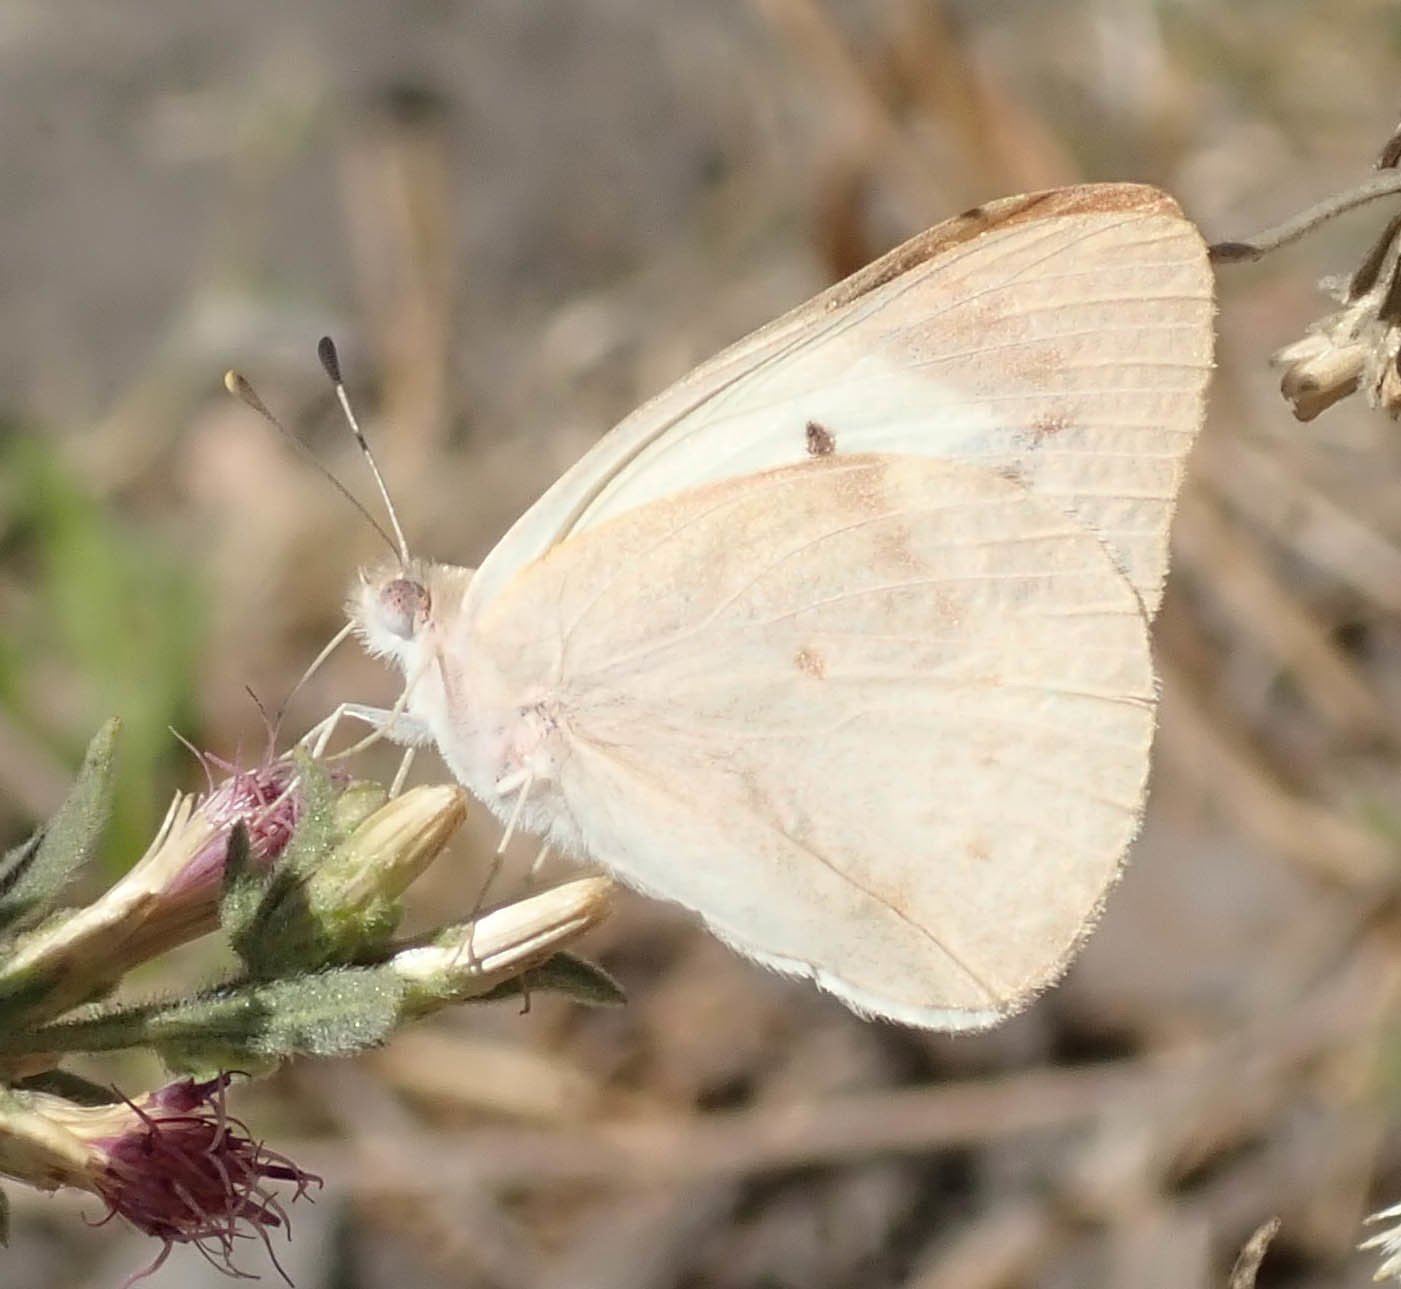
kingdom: Animalia
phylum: Arthropoda
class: Insecta
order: Lepidoptera
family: Pieridae
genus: Teracolus
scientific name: Teracolus agoye
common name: Speckled sulphur tip
